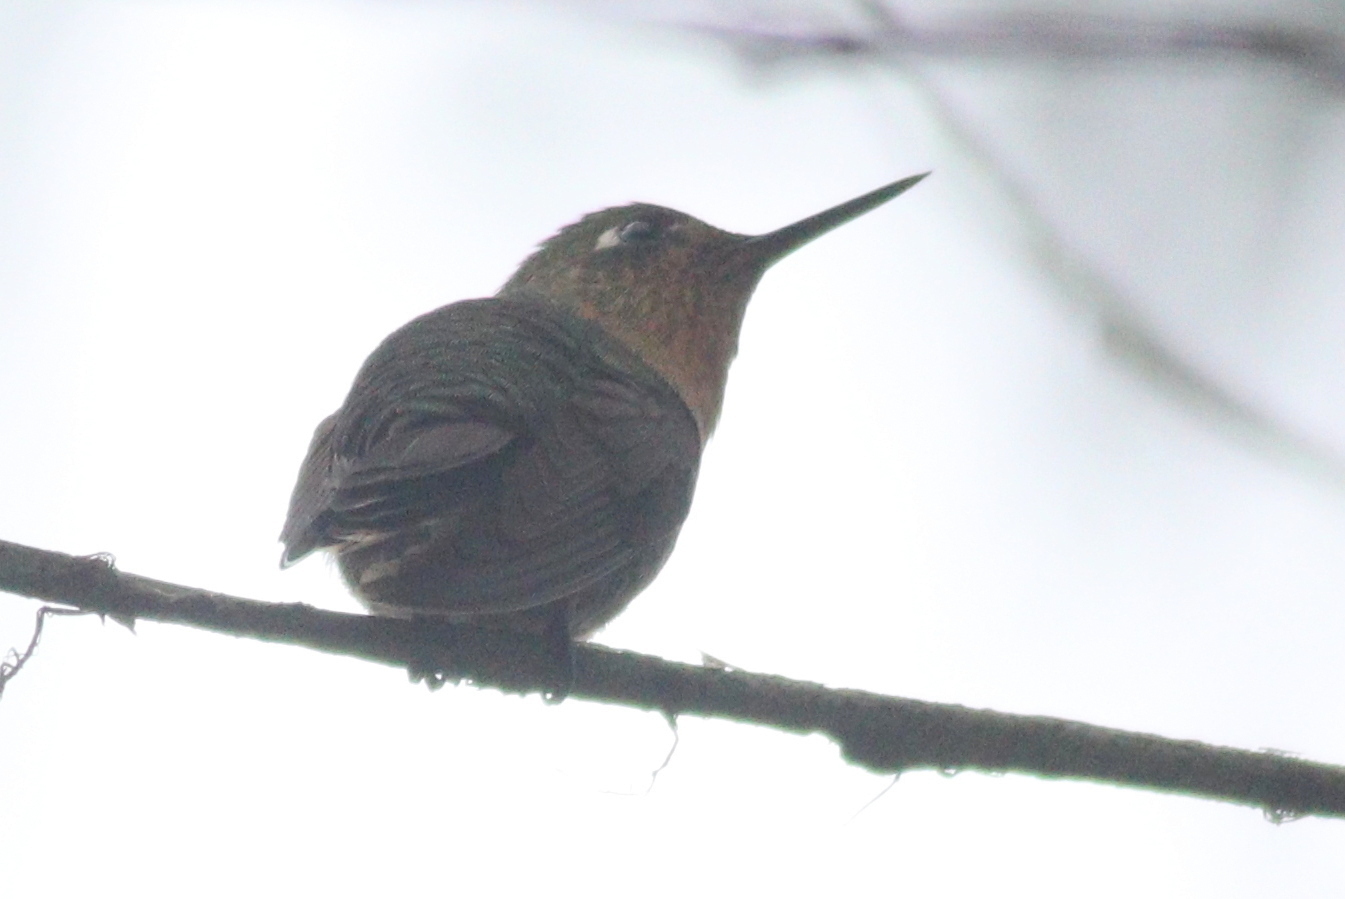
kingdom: Animalia
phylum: Chordata
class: Aves
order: Apodiformes
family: Trochilidae
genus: Metallura
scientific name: Metallura tyrianthina
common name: Tyrian metaltail
